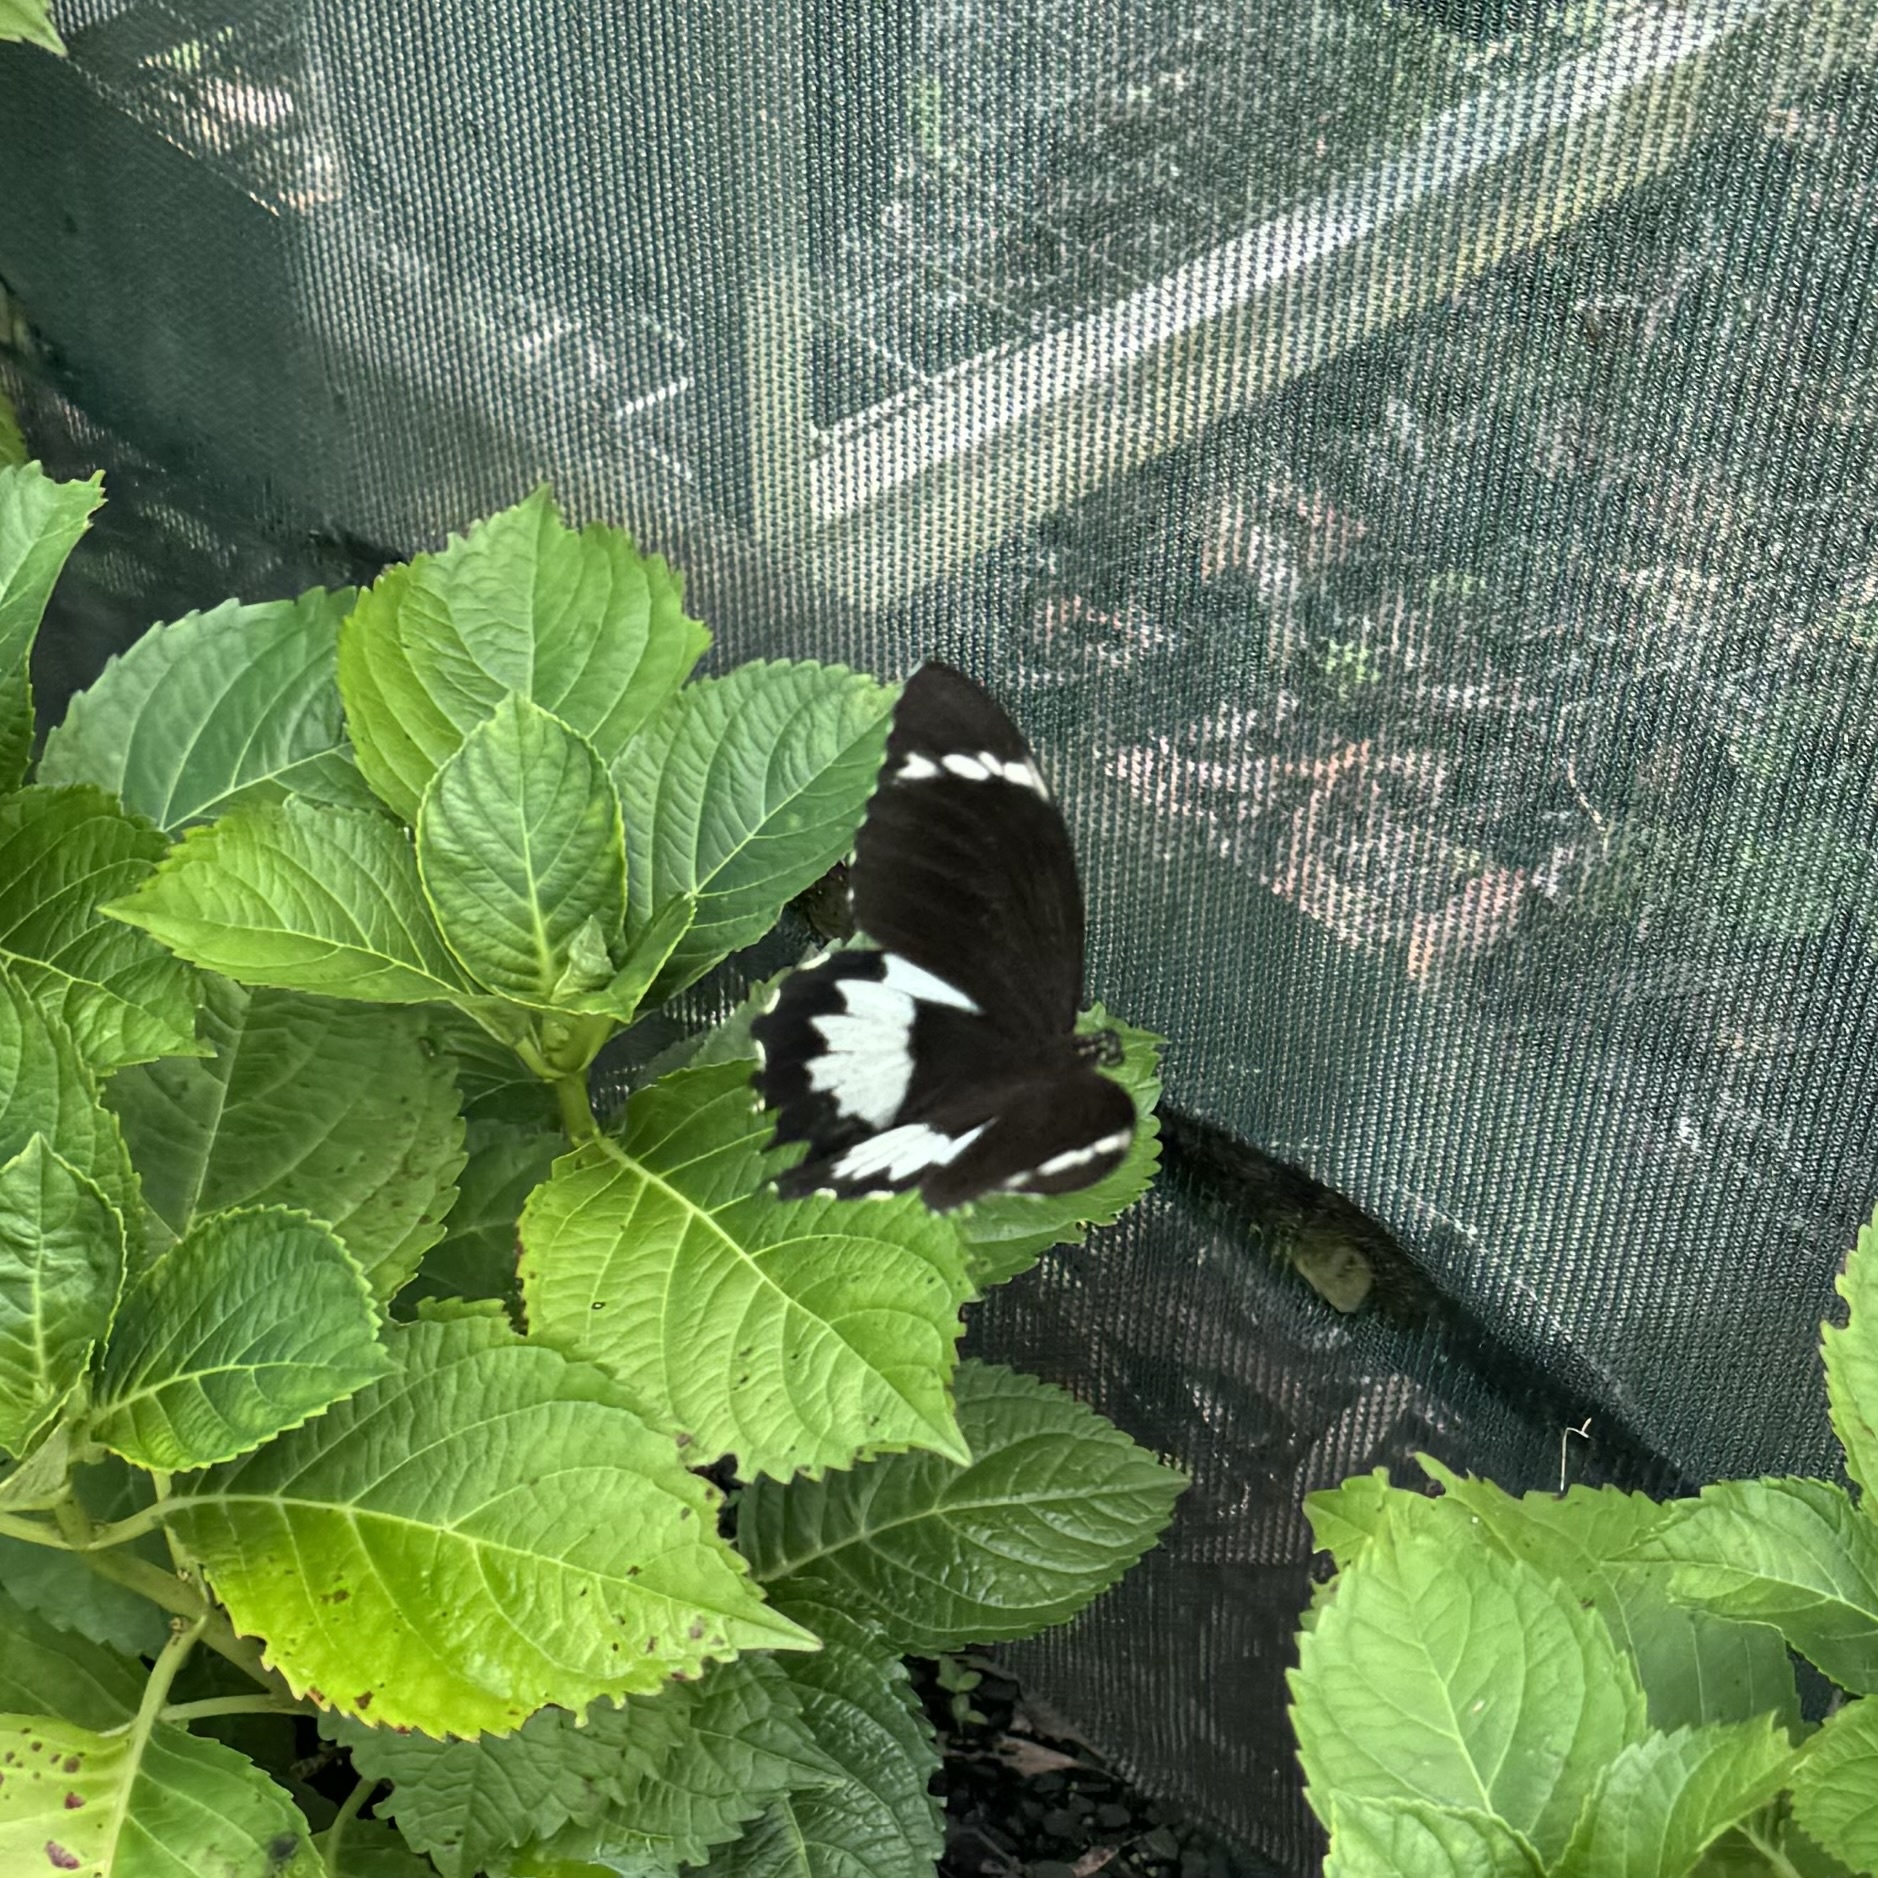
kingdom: Animalia
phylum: Arthropoda
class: Insecta
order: Lepidoptera
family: Papilionidae
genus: Papilio
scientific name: Papilio aegeus
